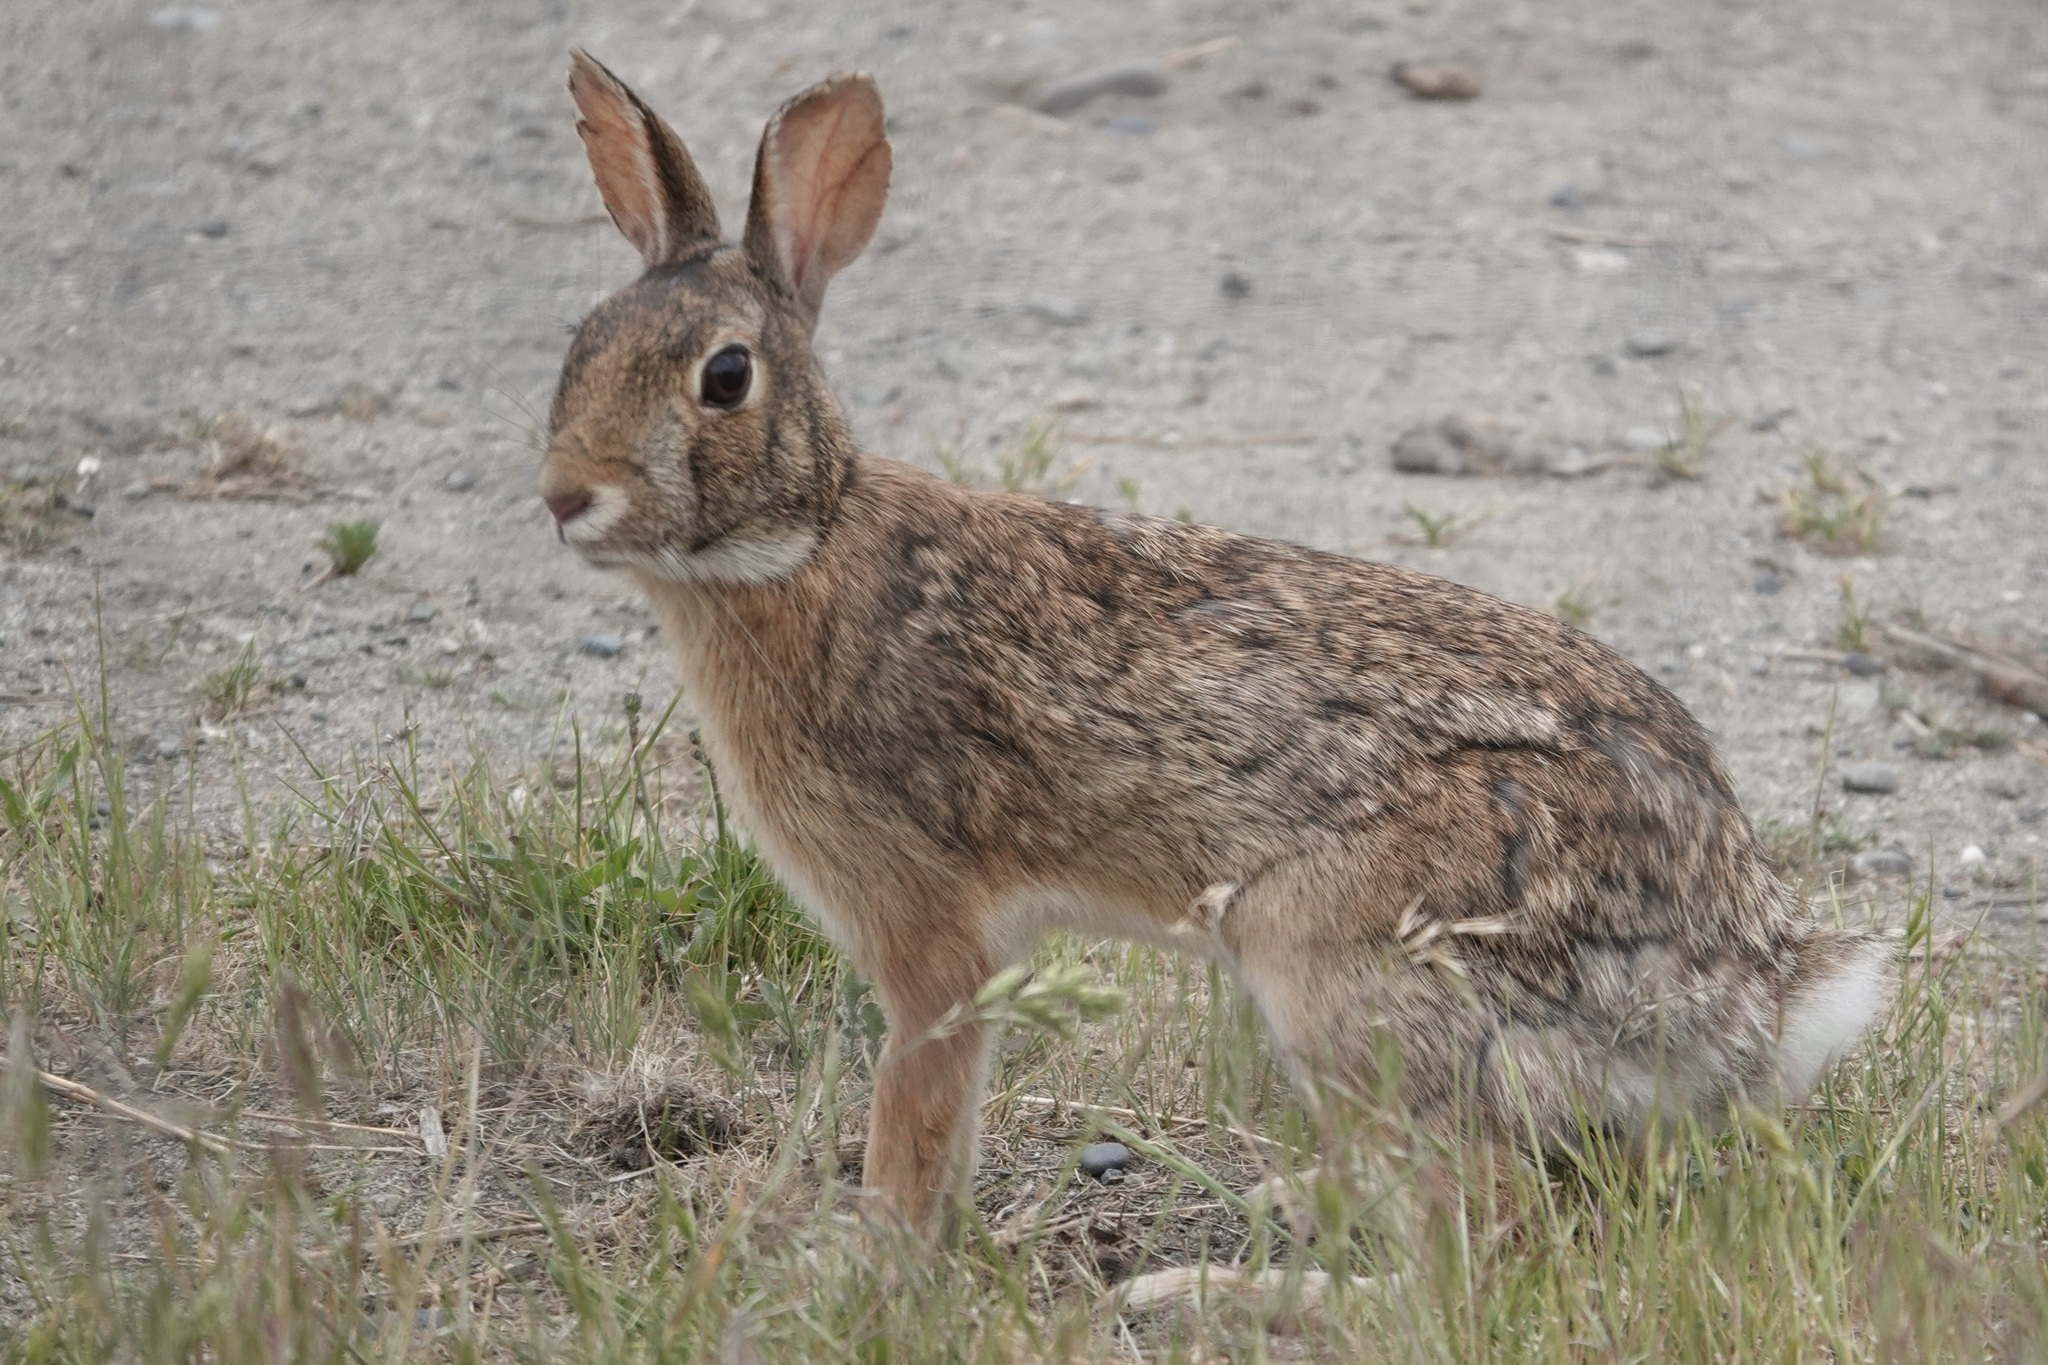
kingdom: Animalia
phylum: Chordata
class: Mammalia
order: Lagomorpha
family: Leporidae
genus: Sylvilagus
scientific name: Sylvilagus floridanus
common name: Eastern cottontail
